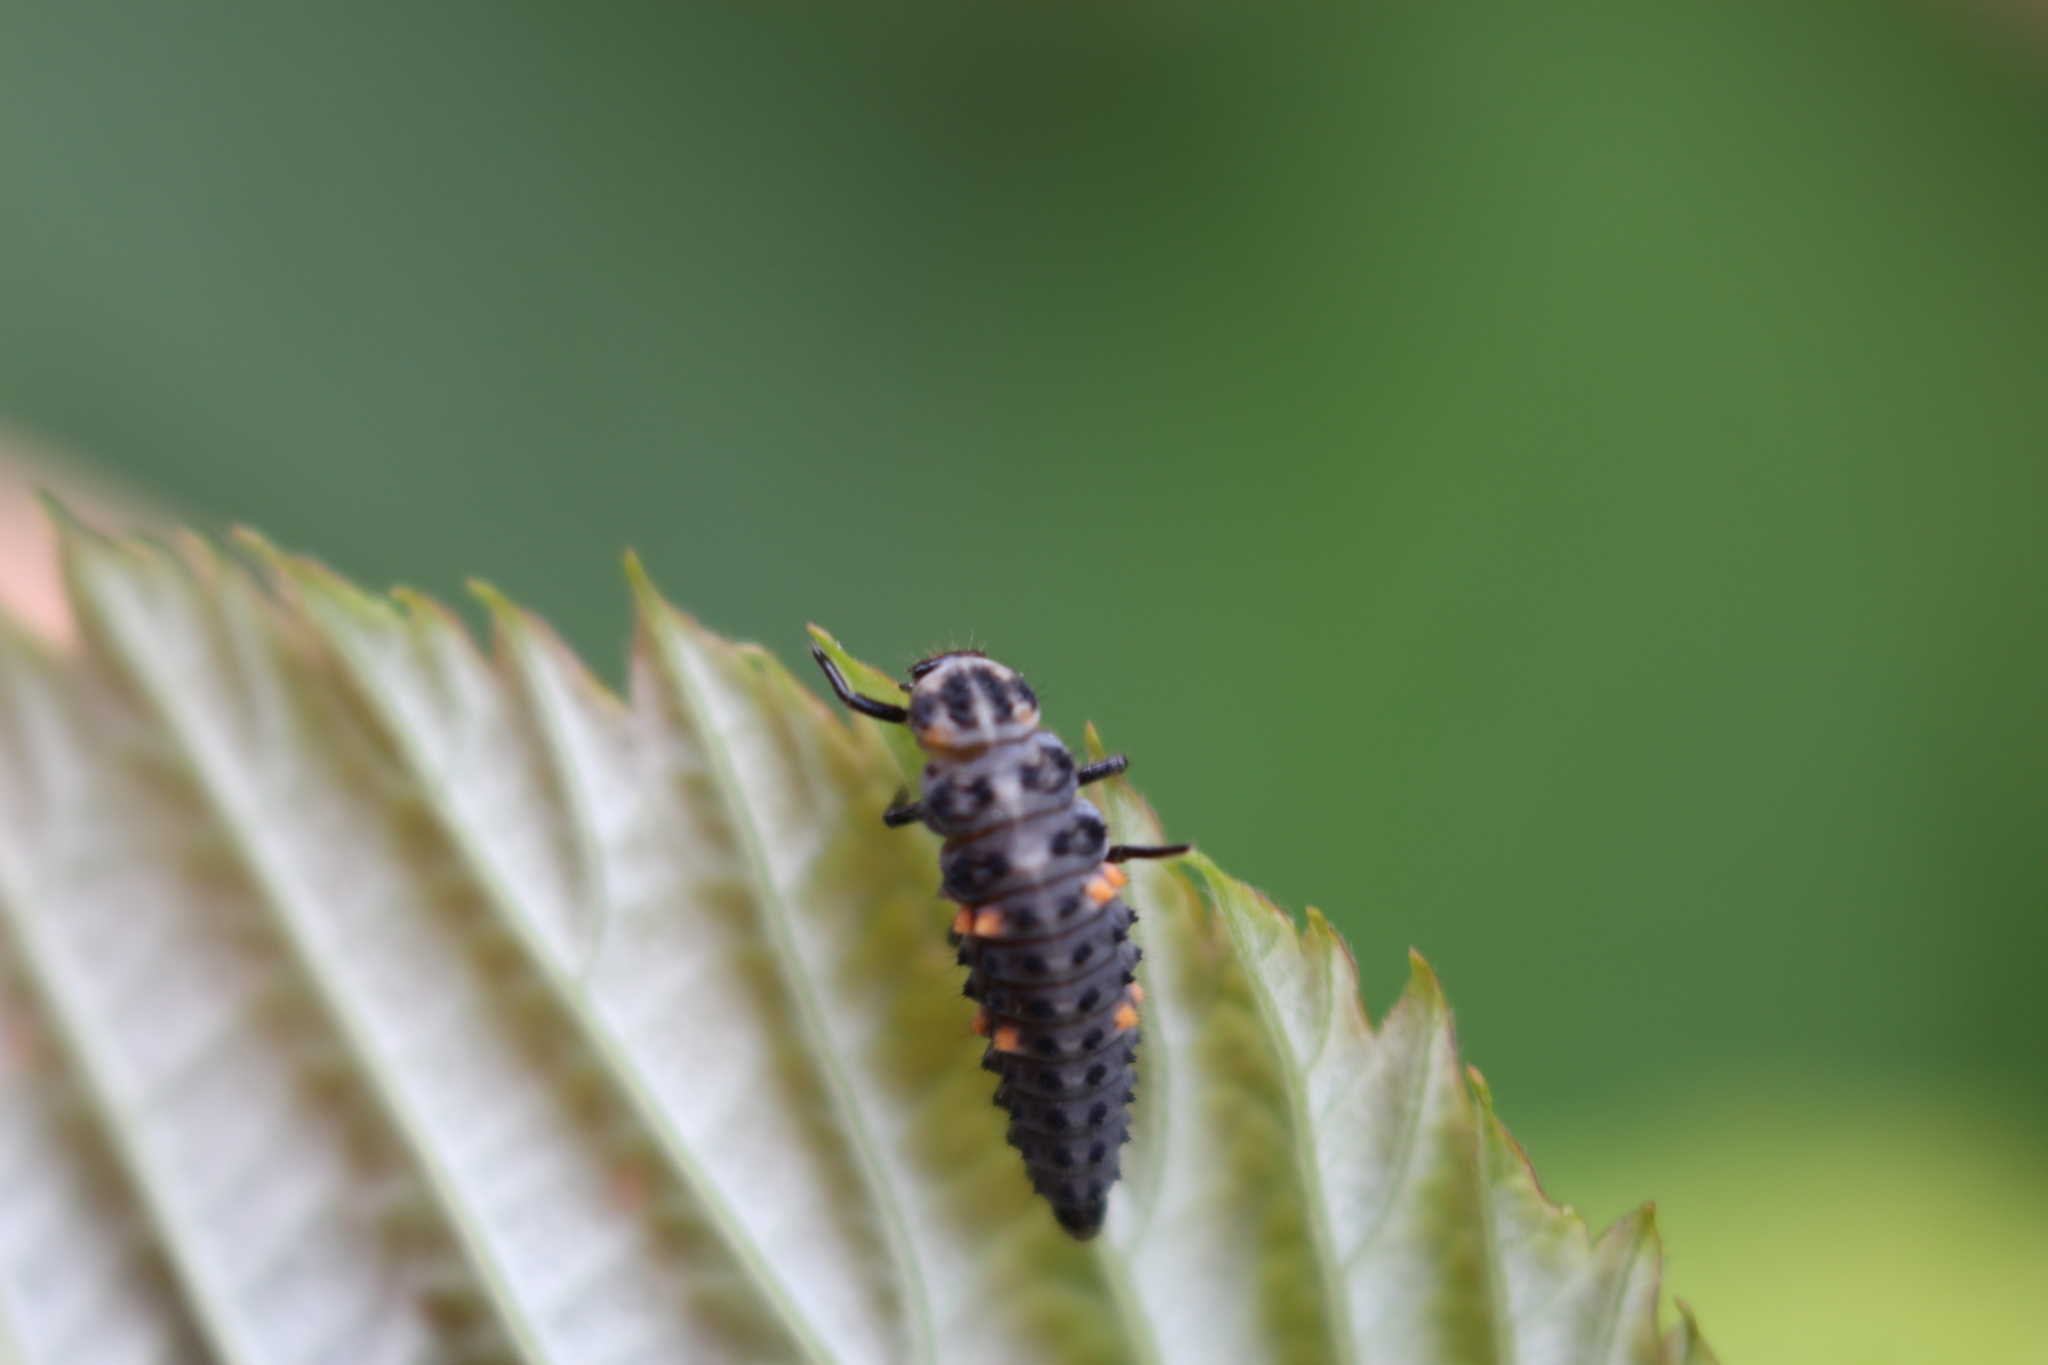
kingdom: Animalia
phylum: Arthropoda
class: Insecta
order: Coleoptera
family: Coccinellidae
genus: Coccinella
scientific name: Coccinella undecimpunctata
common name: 11-spot ladybird
